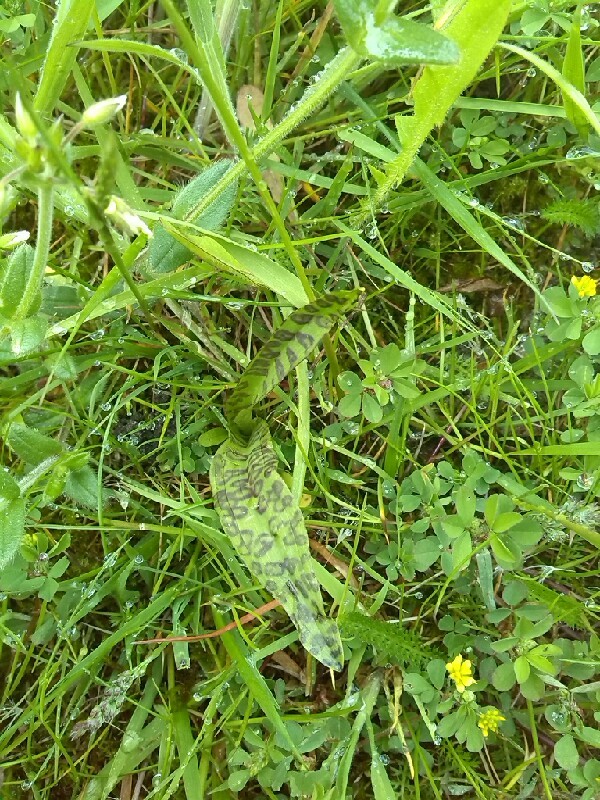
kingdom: Plantae
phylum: Tracheophyta
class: Liliopsida
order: Asparagales
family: Orchidaceae
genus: Dactylorhiza
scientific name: Dactylorhiza majalis
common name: Marsh orchid
